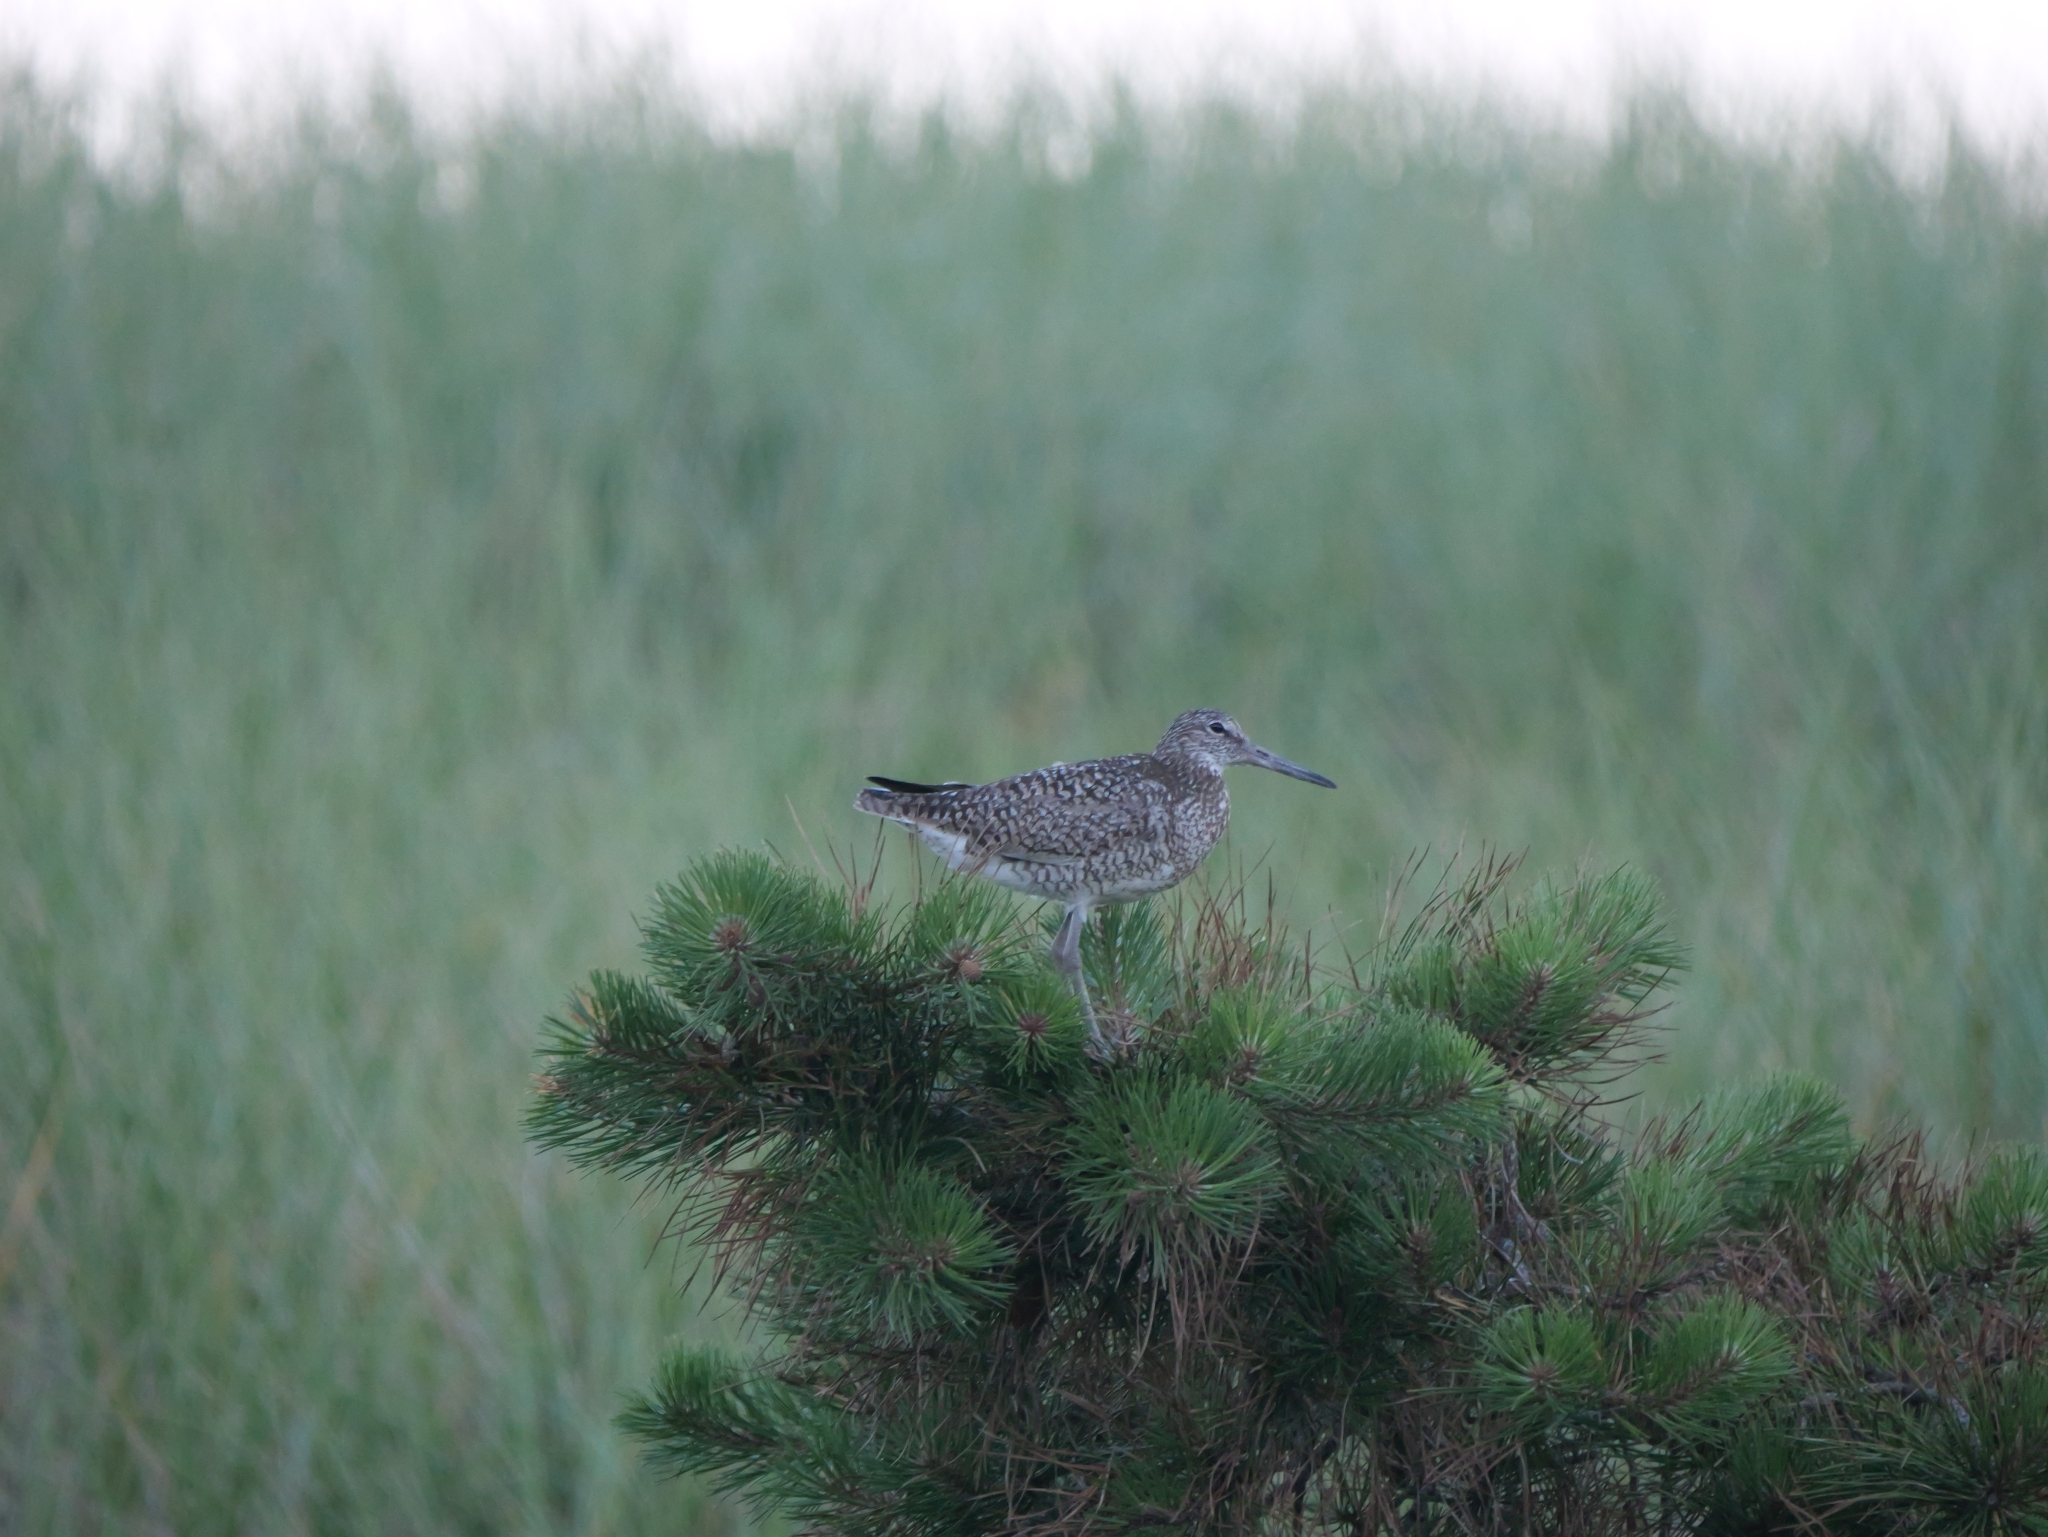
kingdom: Animalia
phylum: Chordata
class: Aves
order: Charadriiformes
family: Scolopacidae
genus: Tringa
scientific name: Tringa semipalmata
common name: Willet
